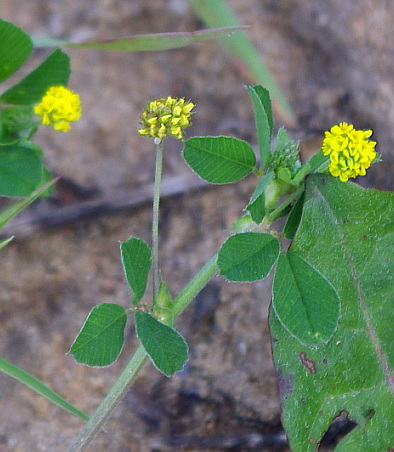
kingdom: Plantae
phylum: Tracheophyta
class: Magnoliopsida
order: Fabales
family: Fabaceae
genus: Medicago
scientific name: Medicago lupulina
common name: Black medick
